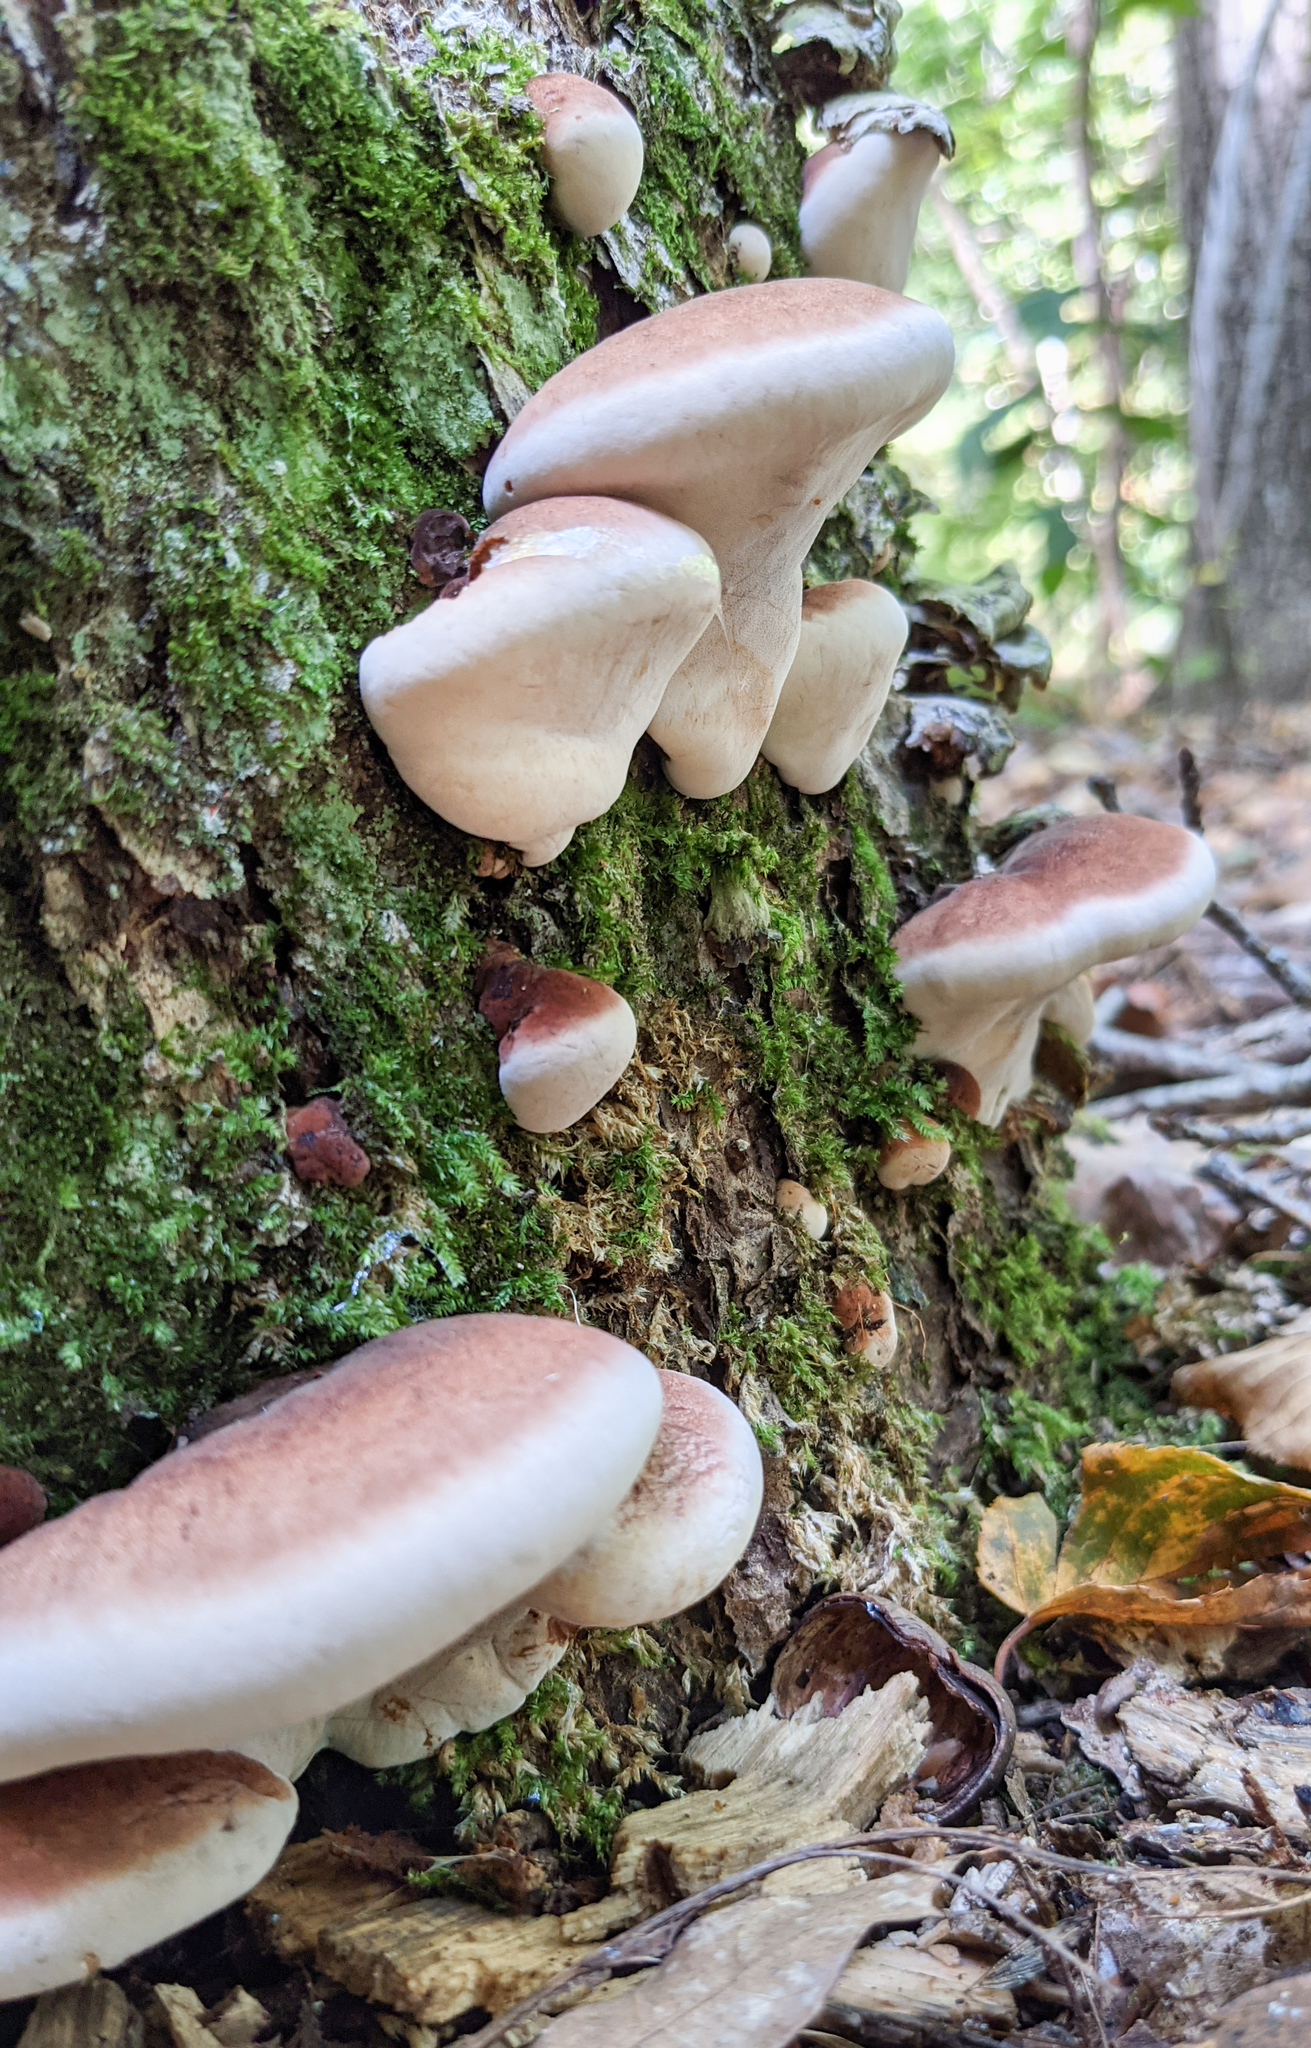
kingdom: Fungi
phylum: Basidiomycota
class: Agaricomycetes
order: Polyporales
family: Ischnodermataceae
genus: Ischnoderma
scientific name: Ischnoderma resinosum
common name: Resinous polypore
